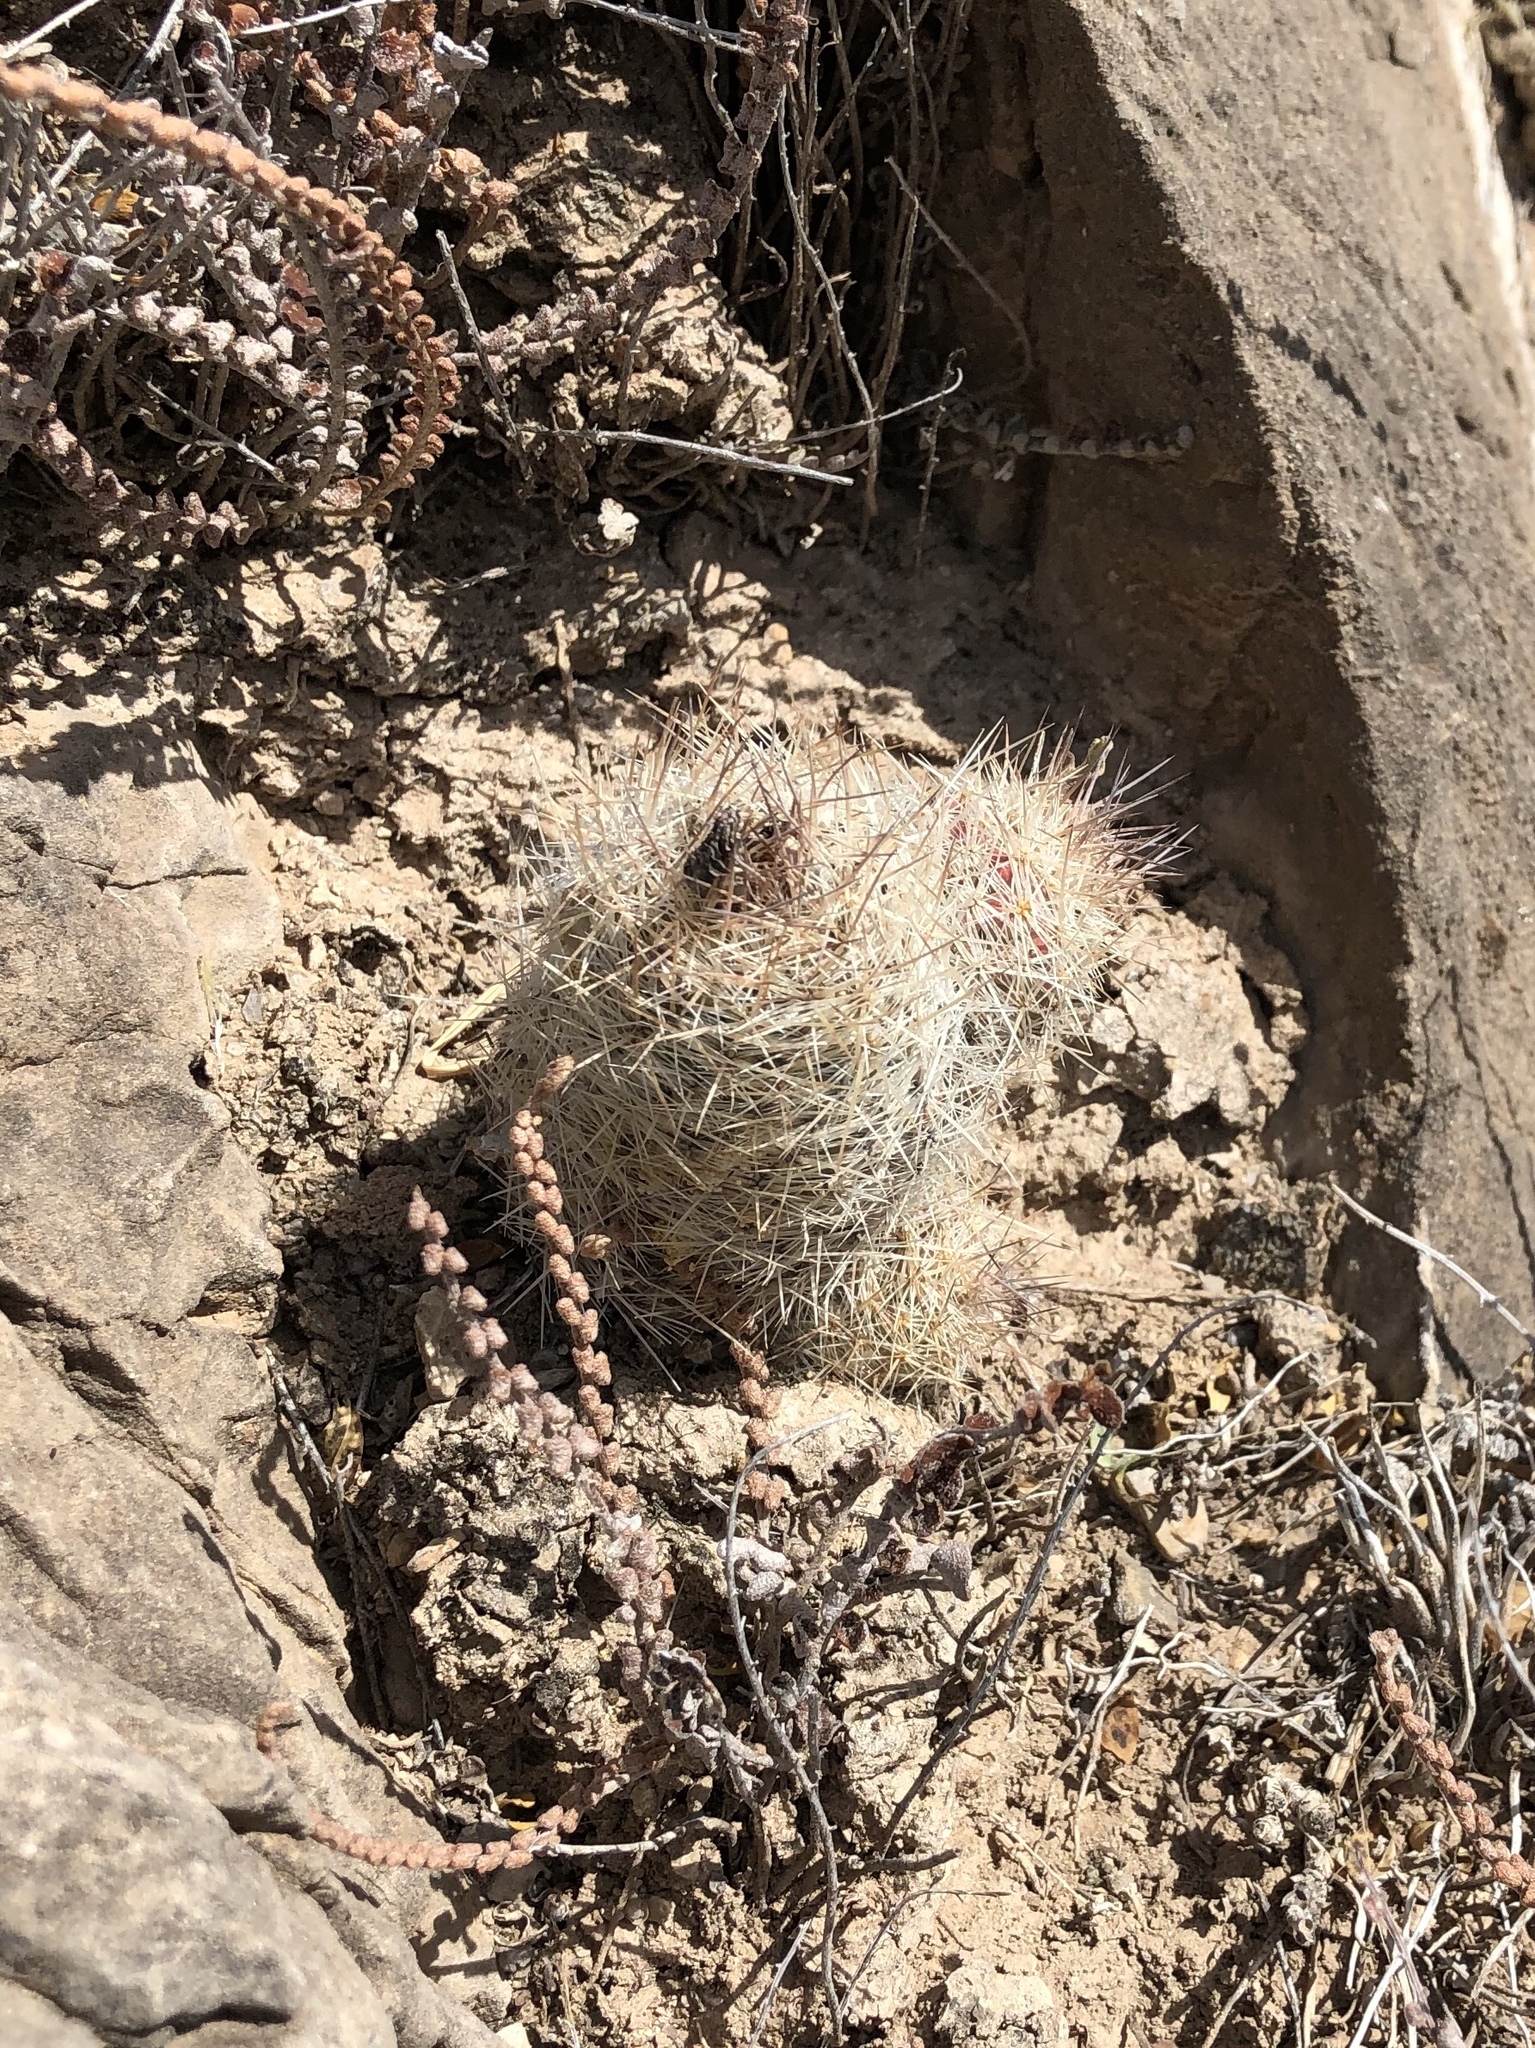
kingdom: Plantae
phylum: Tracheophyta
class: Magnoliopsida
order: Caryophyllales
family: Cactaceae
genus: Pelecyphora
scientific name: Pelecyphora tuberculosa
